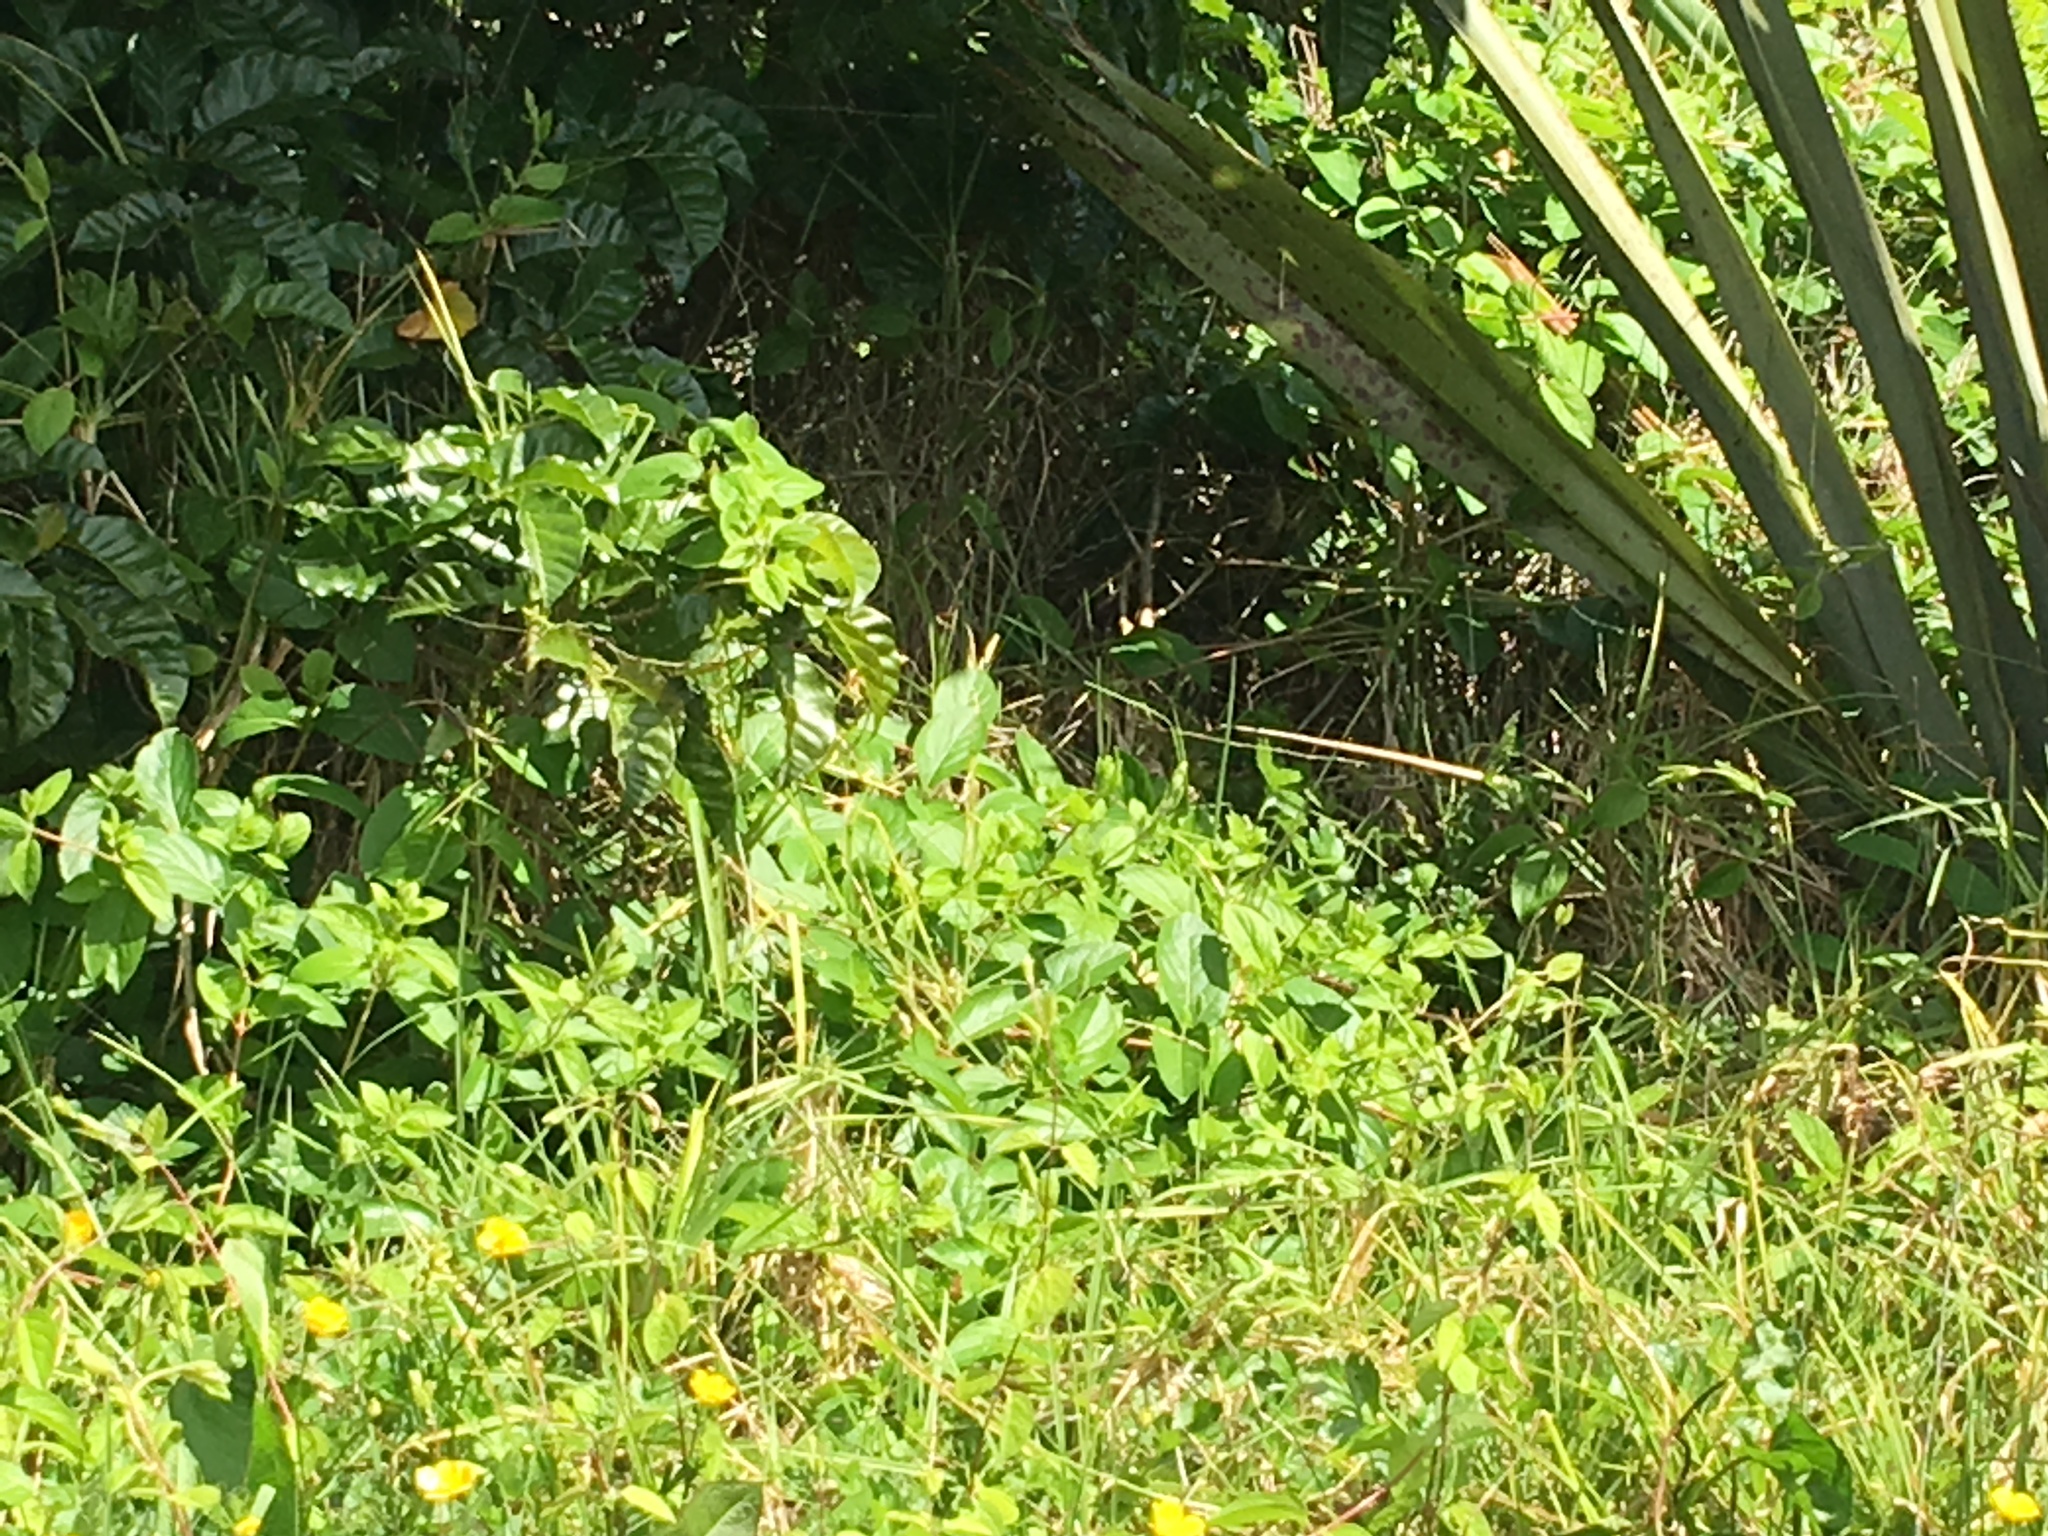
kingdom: Plantae
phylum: Tracheophyta
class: Magnoliopsida
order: Dipsacales
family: Caprifoliaceae
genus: Lonicera
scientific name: Lonicera japonica
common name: Japanese honeysuckle
